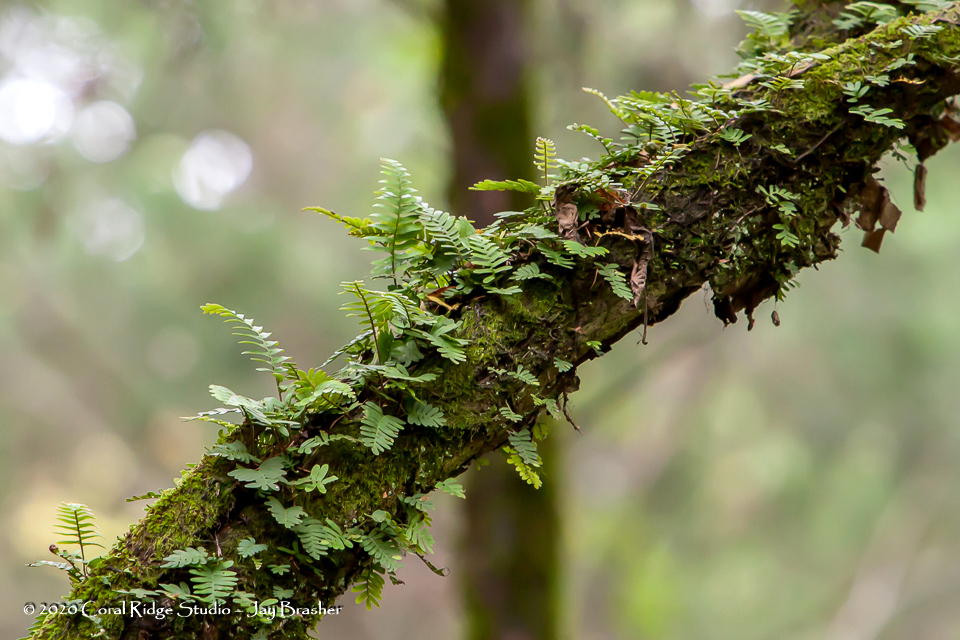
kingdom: Plantae
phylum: Tracheophyta
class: Polypodiopsida
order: Polypodiales
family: Polypodiaceae
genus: Pleopeltis
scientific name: Pleopeltis michauxiana
